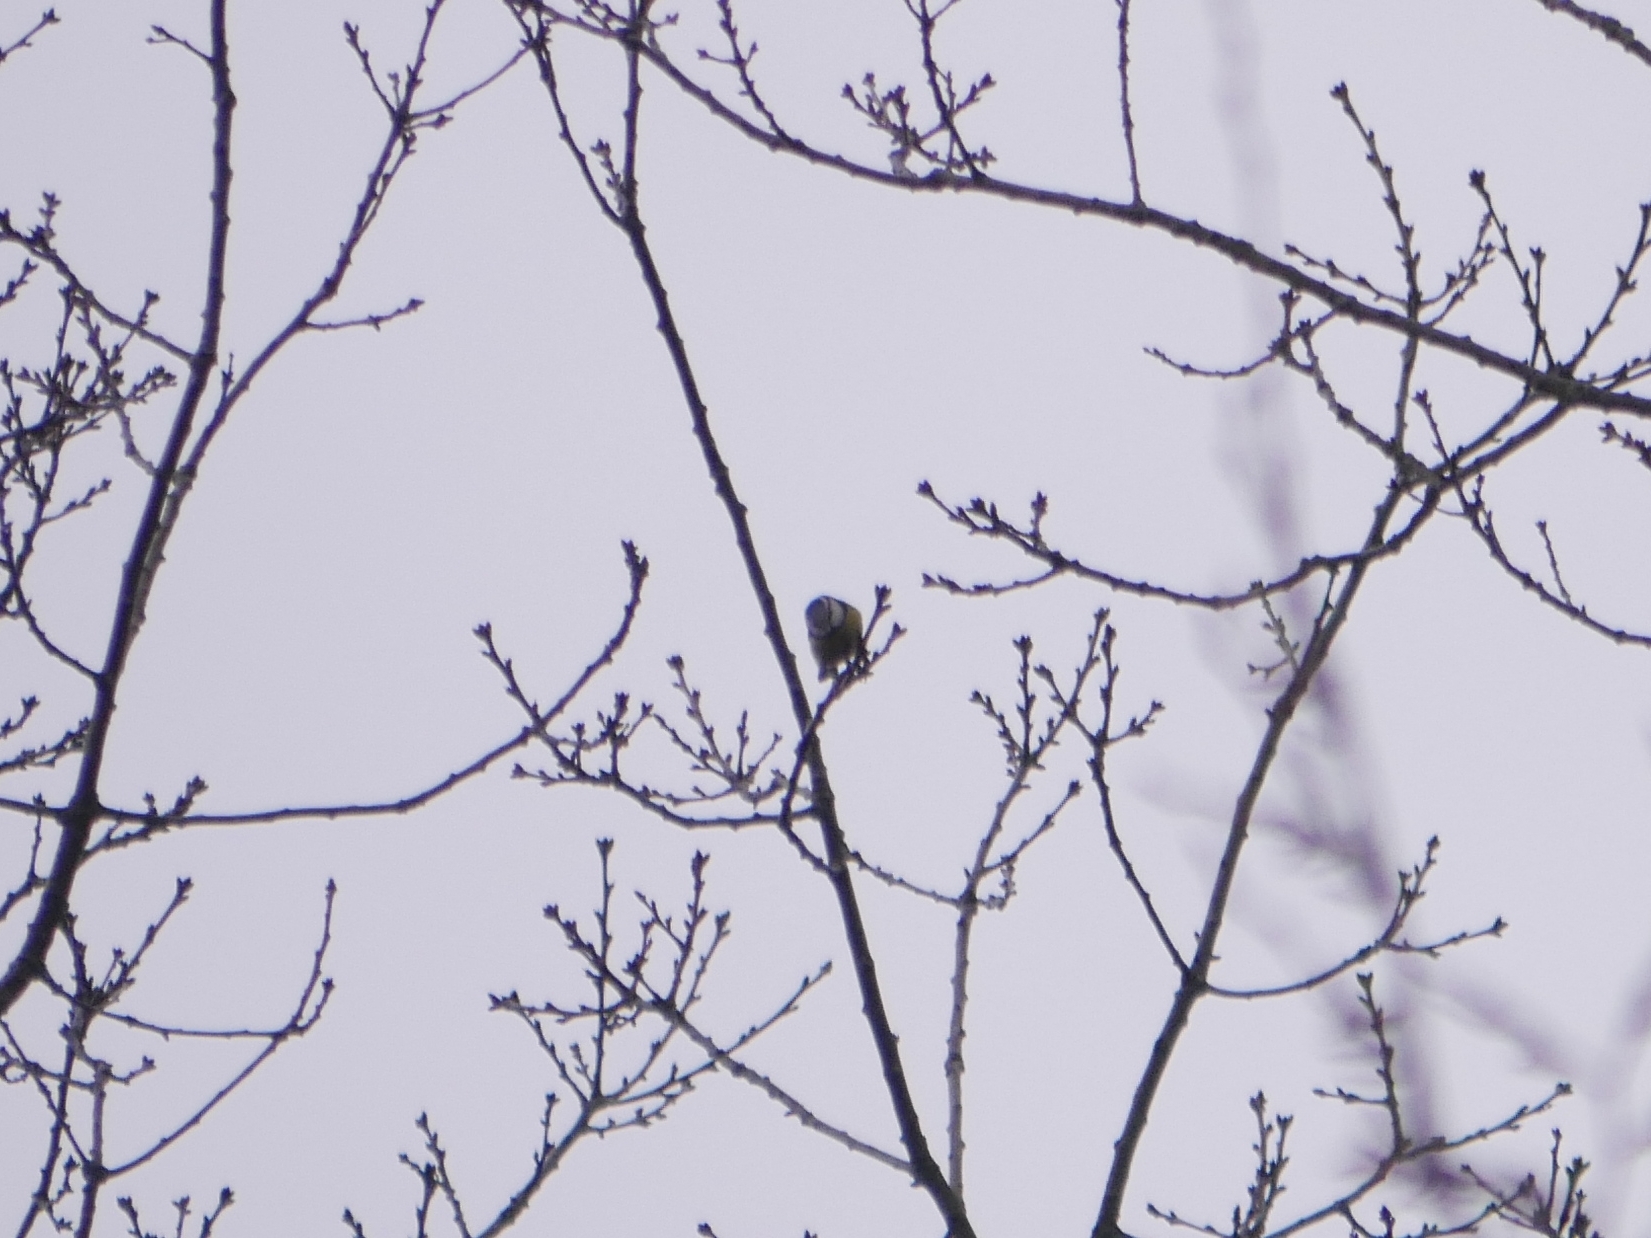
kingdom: Animalia
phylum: Chordata
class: Aves
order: Passeriformes
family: Paridae
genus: Cyanistes
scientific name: Cyanistes caeruleus
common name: Eurasian blue tit
